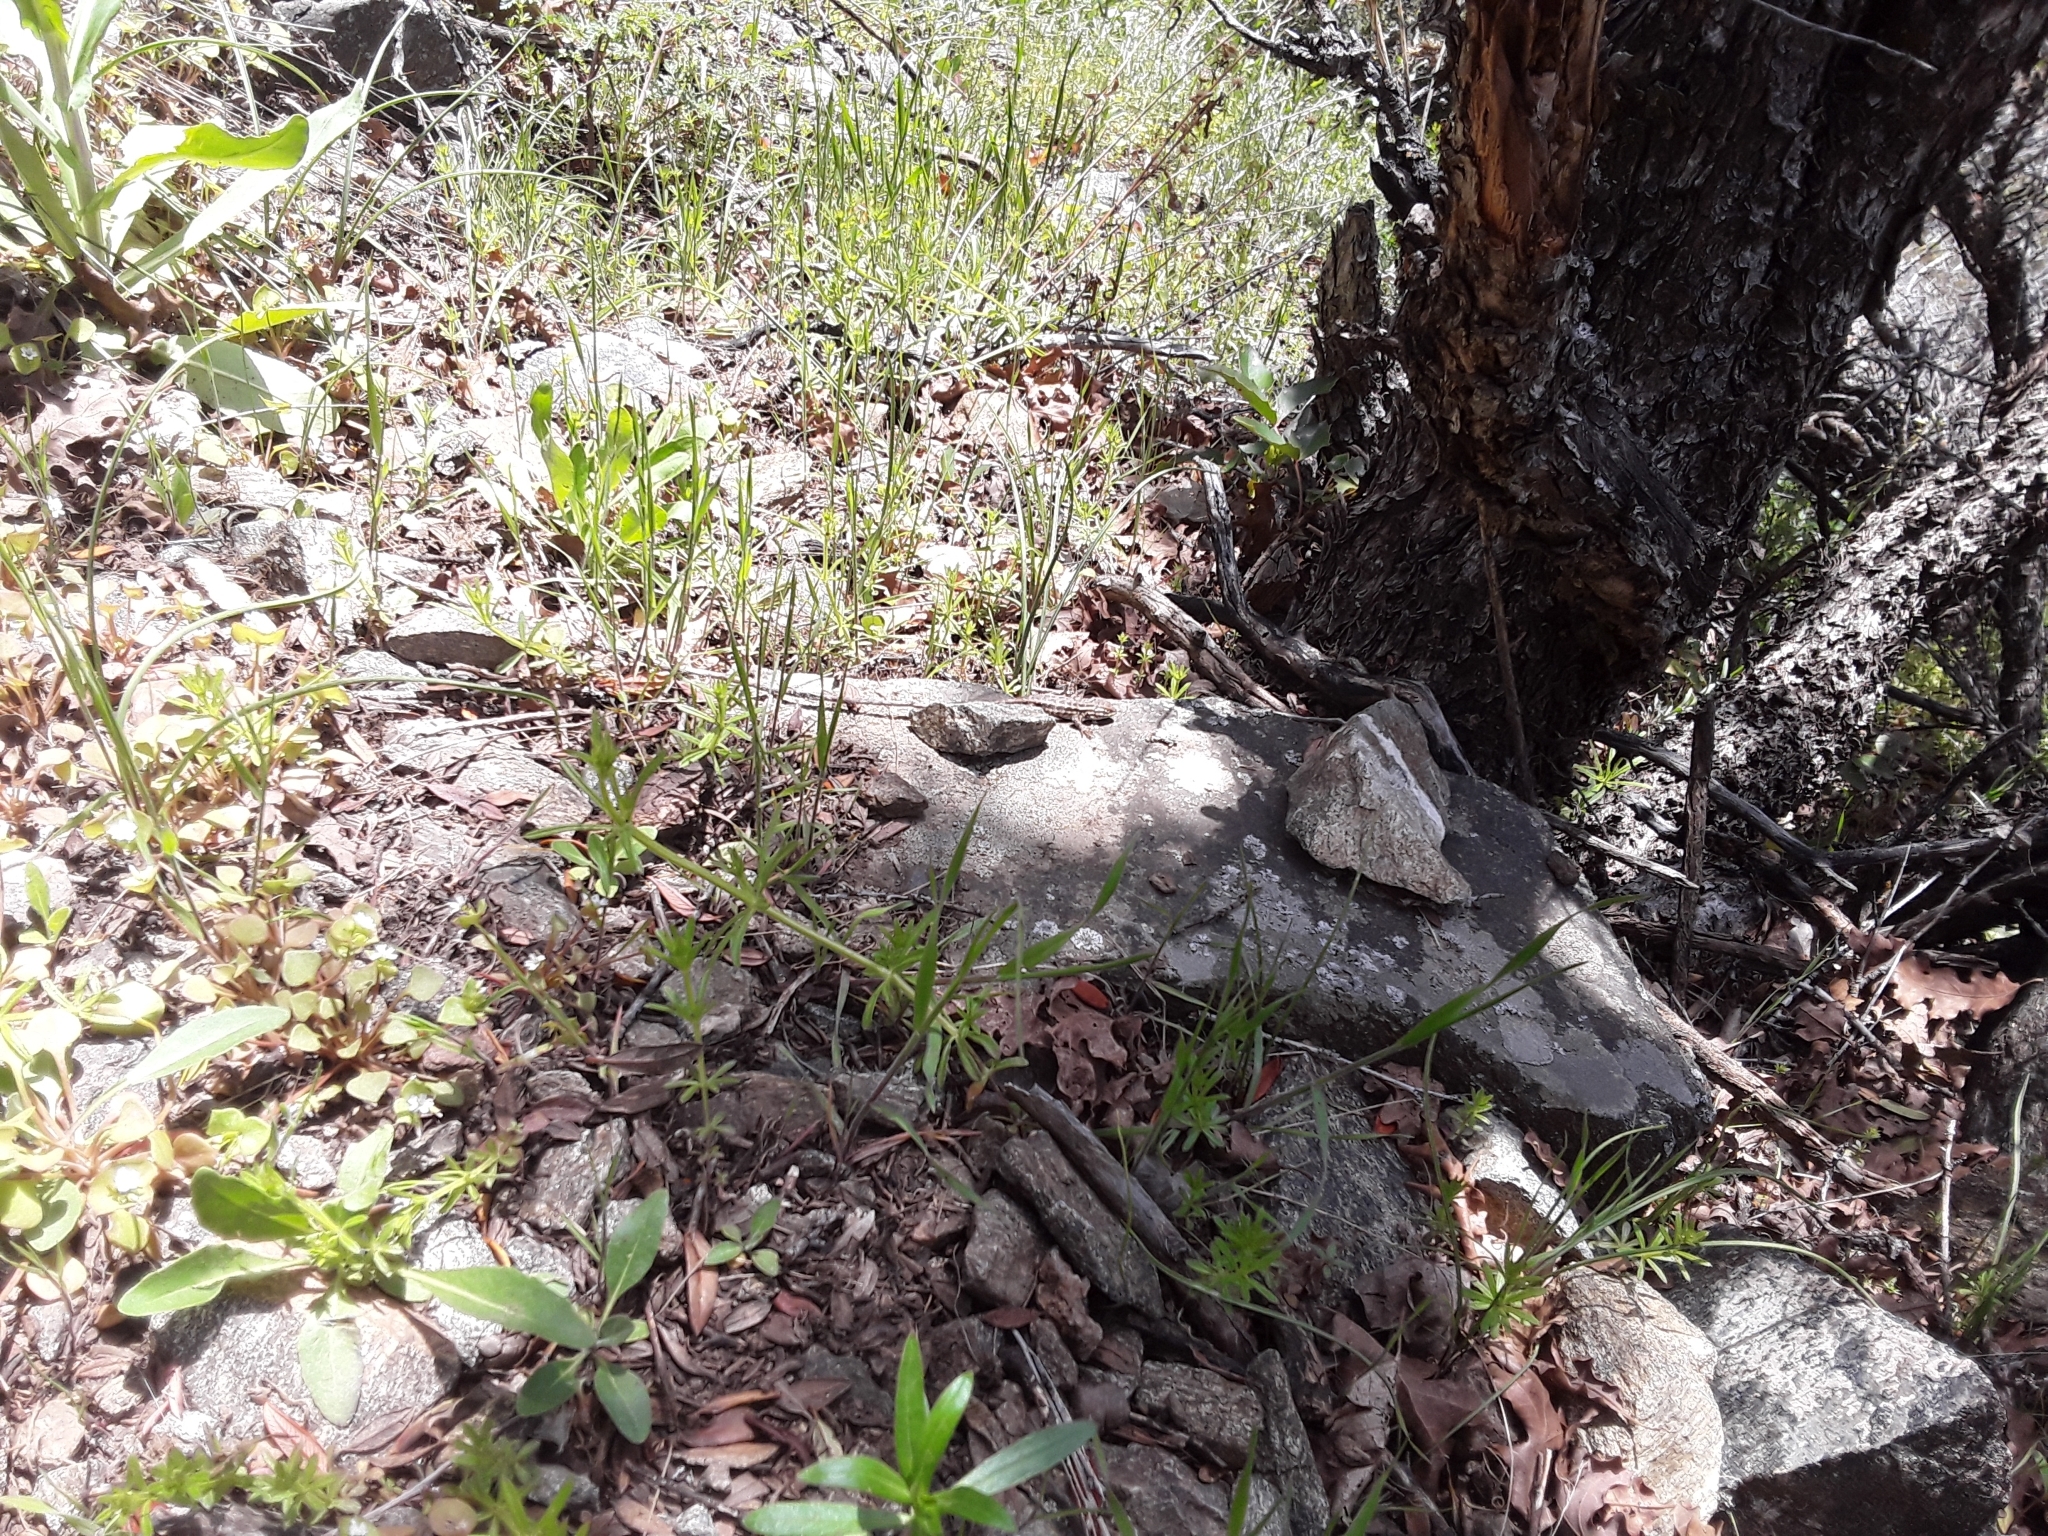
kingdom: Animalia
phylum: Chordata
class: Squamata
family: Phrynosomatidae
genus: Sceloporus
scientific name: Sceloporus graciosus
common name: Sagebrush lizard
